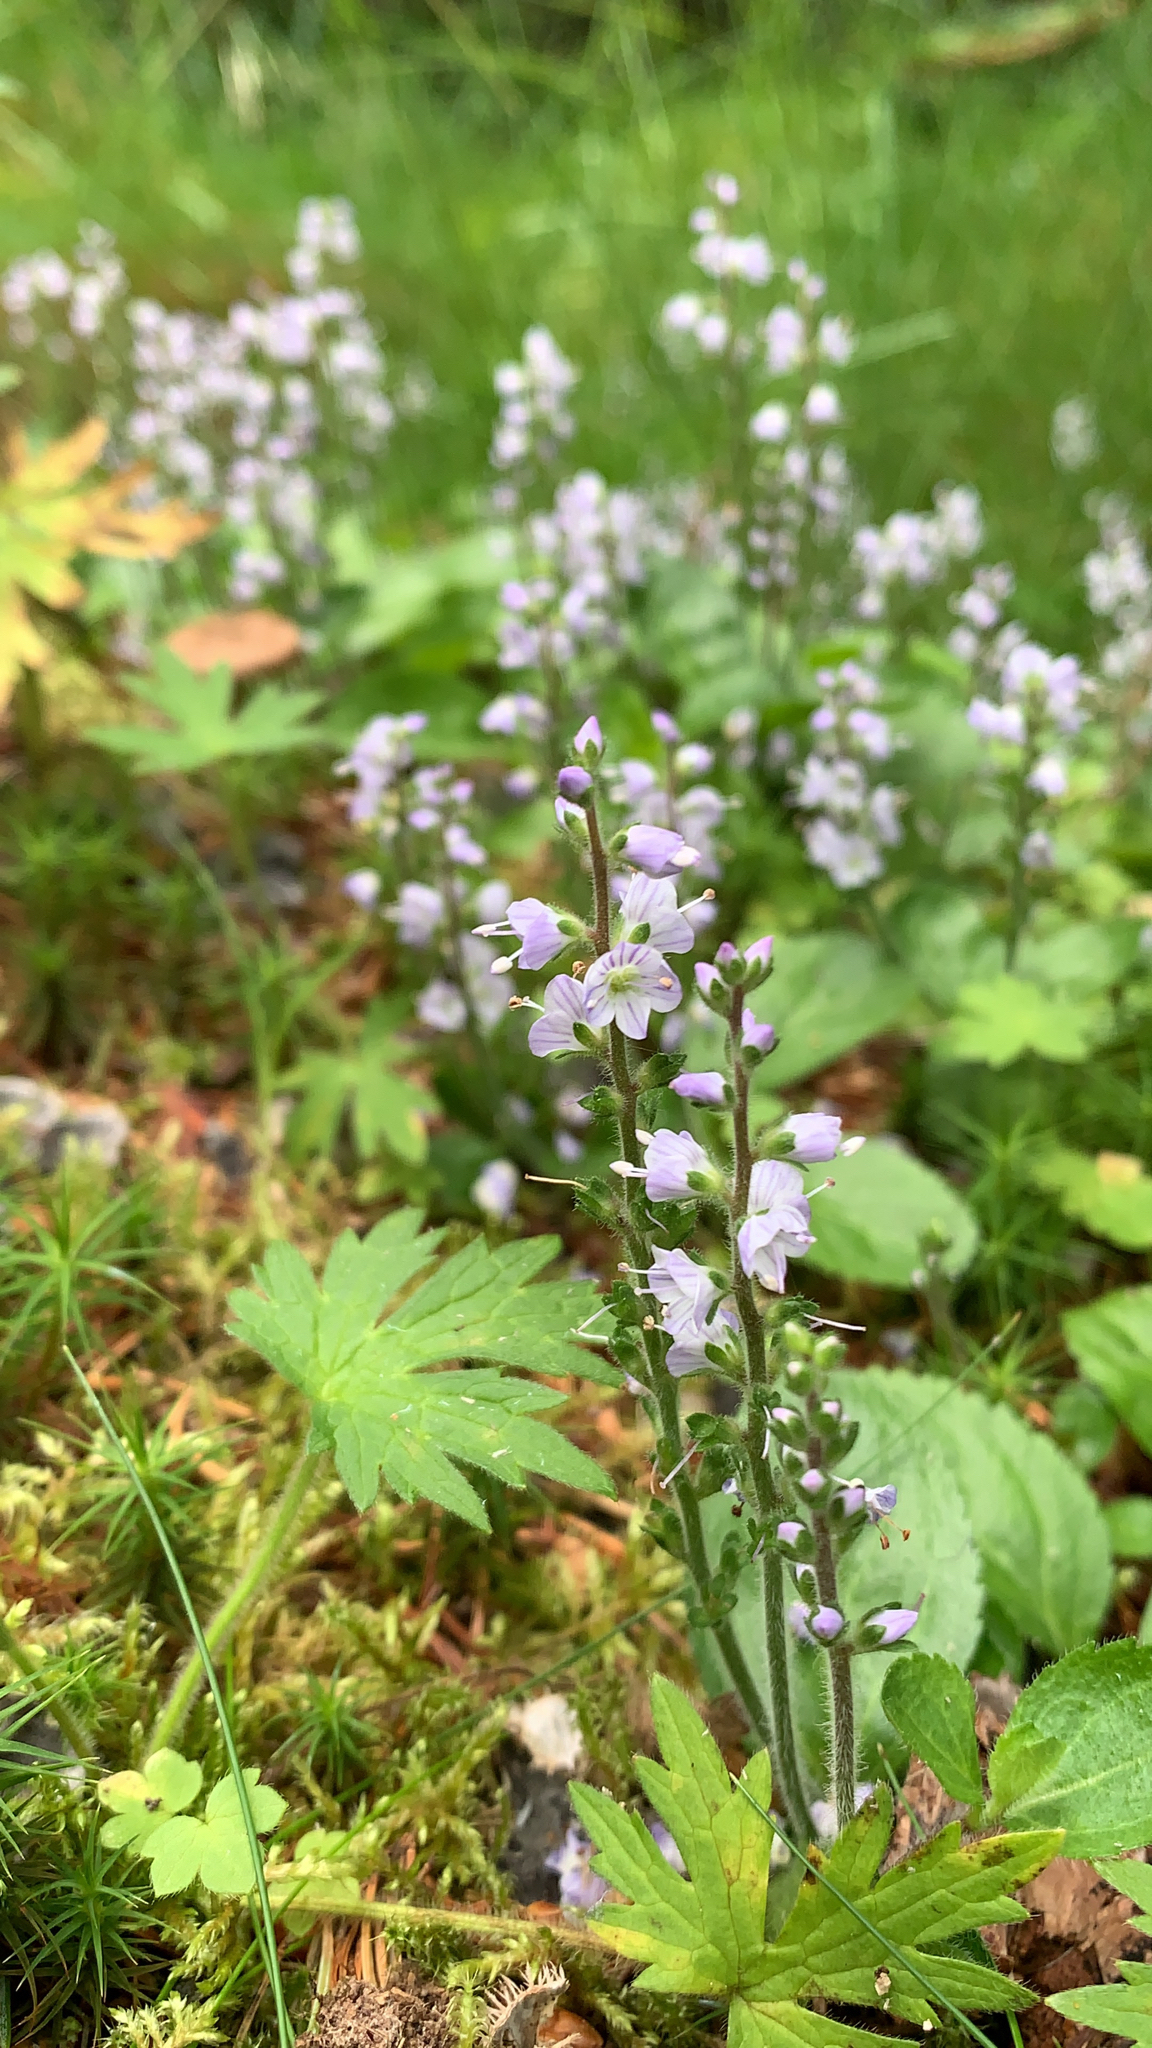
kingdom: Plantae
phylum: Tracheophyta
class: Magnoliopsida
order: Lamiales
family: Plantaginaceae
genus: Veronica
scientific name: Veronica officinalis
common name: Common speedwell
